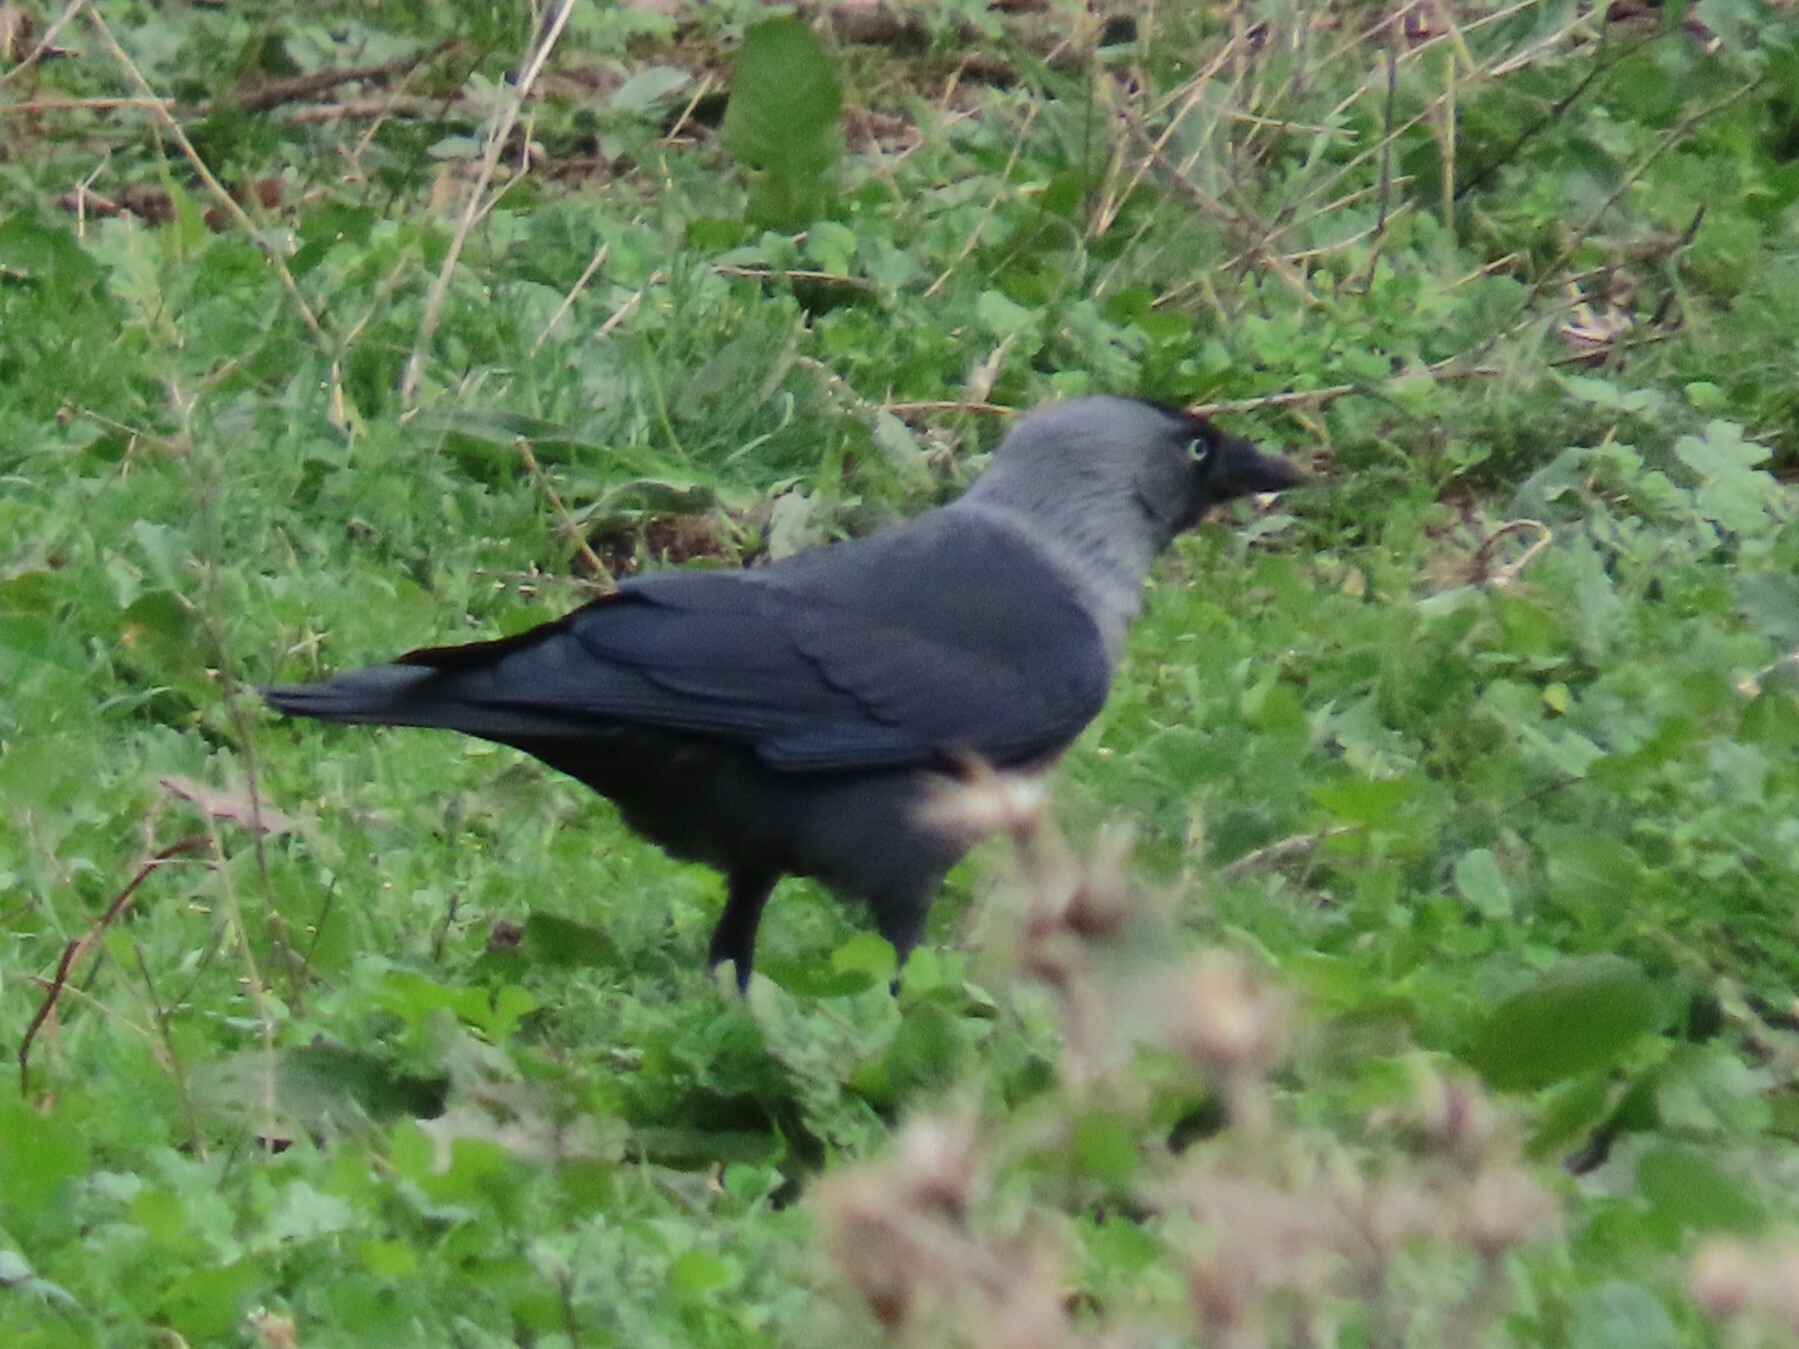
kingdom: Animalia
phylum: Chordata
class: Aves
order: Passeriformes
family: Corvidae
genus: Coloeus
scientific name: Coloeus monedula
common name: Western jackdaw
